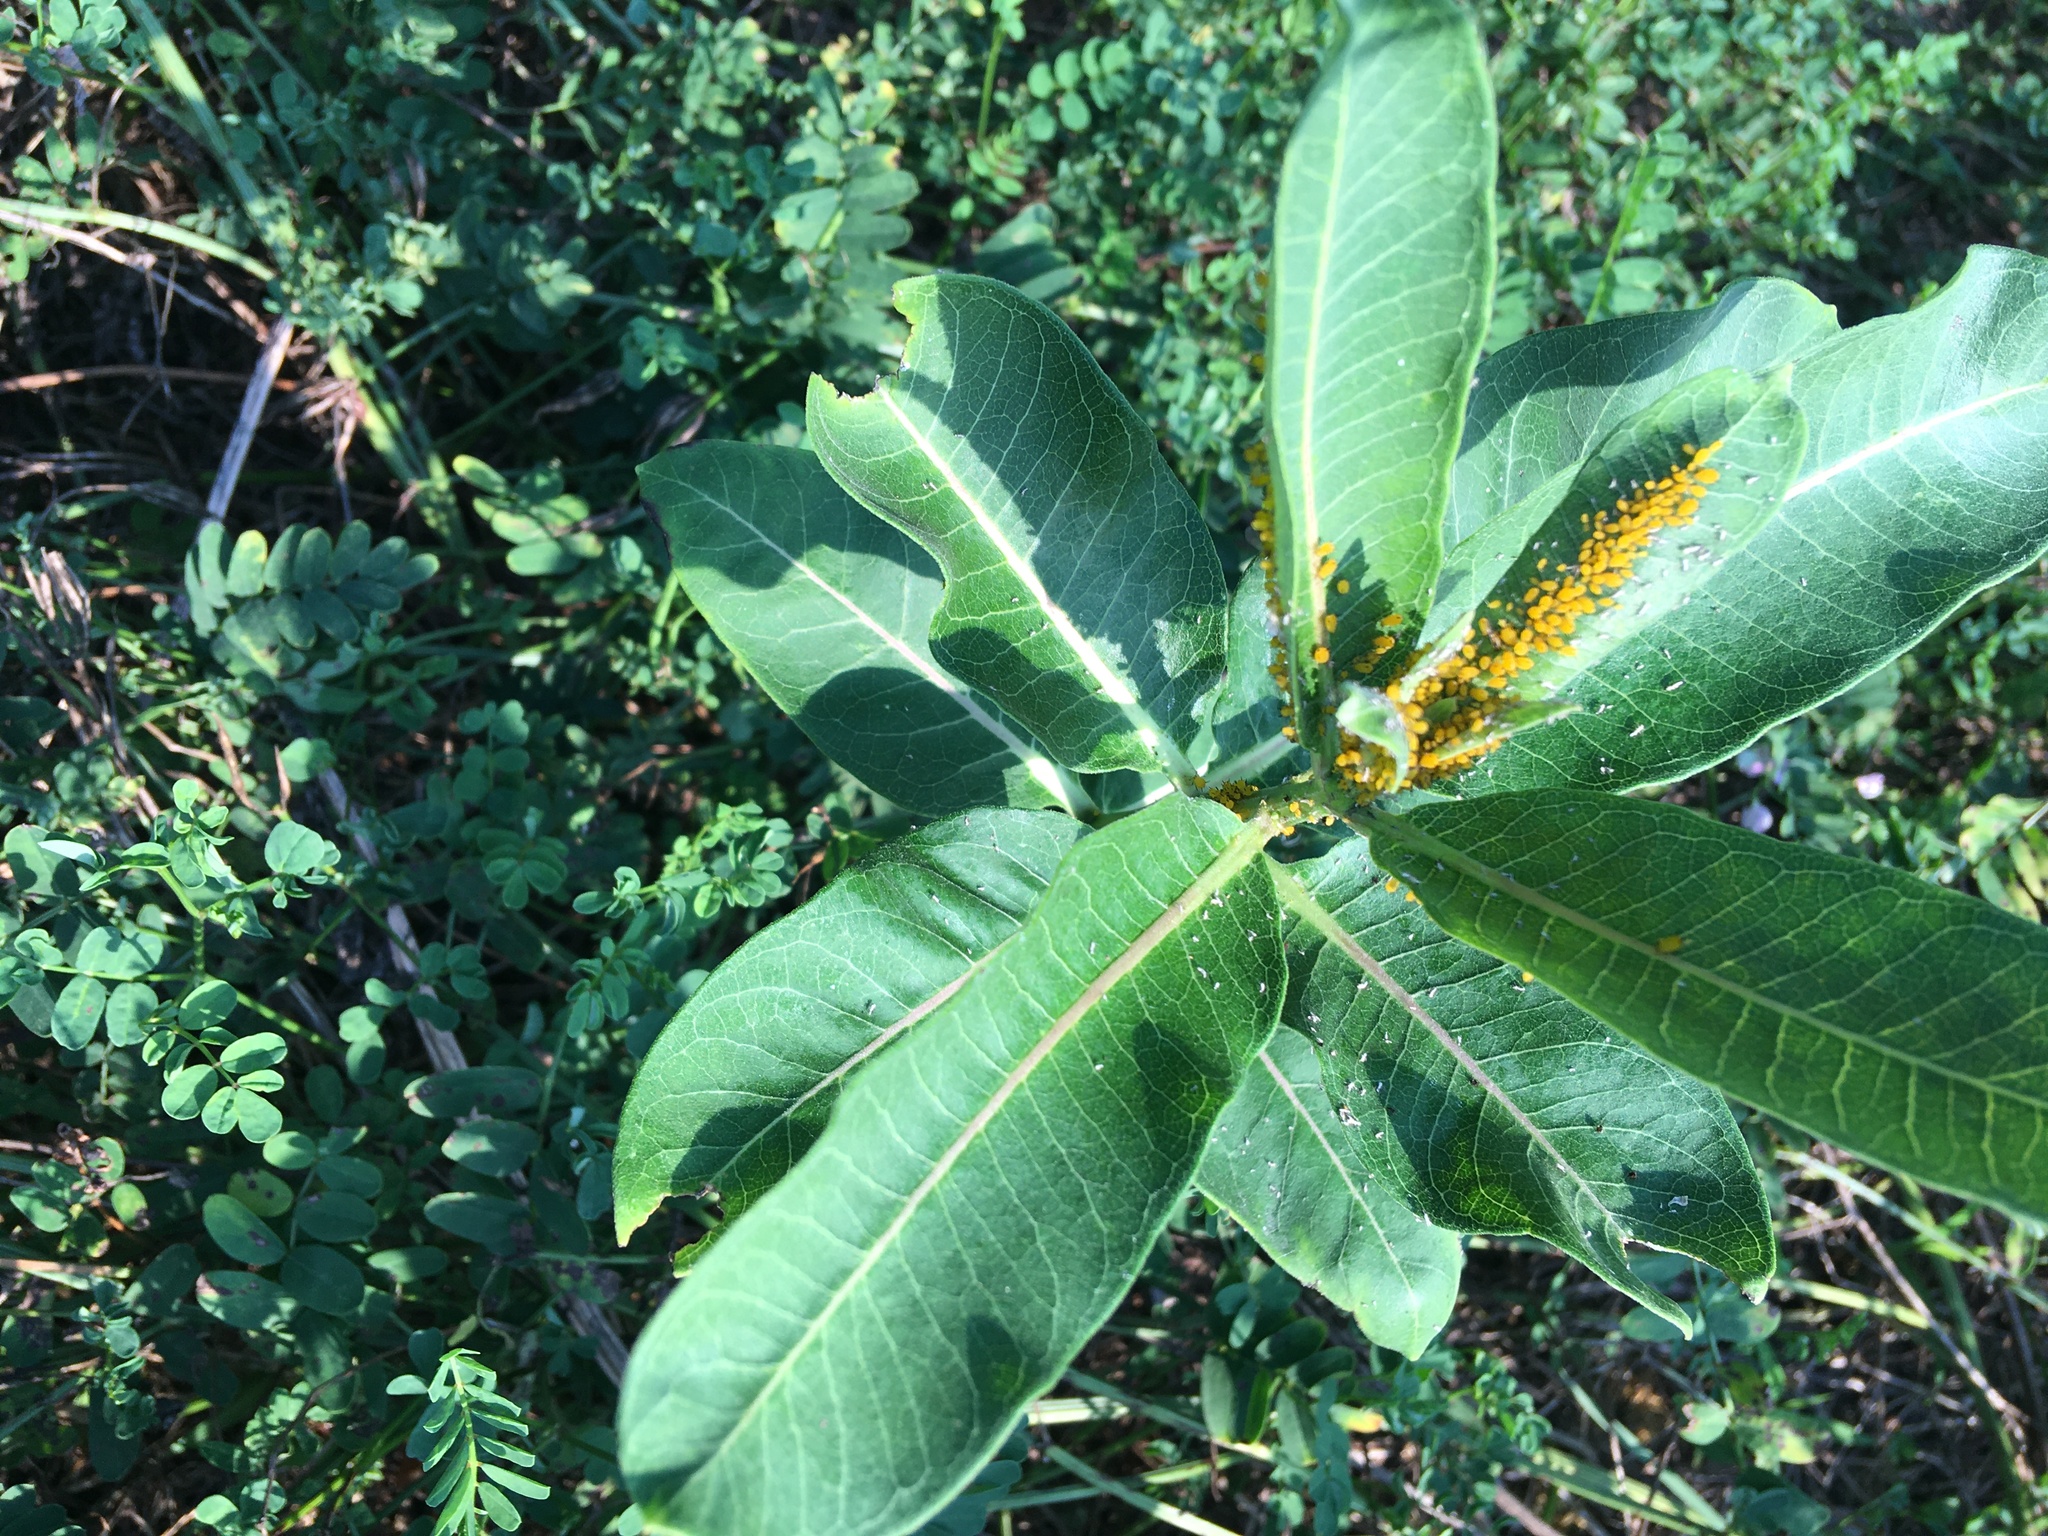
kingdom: Plantae
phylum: Tracheophyta
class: Magnoliopsida
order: Gentianales
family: Apocynaceae
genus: Asclepias
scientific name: Asclepias syriaca
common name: Common milkweed
